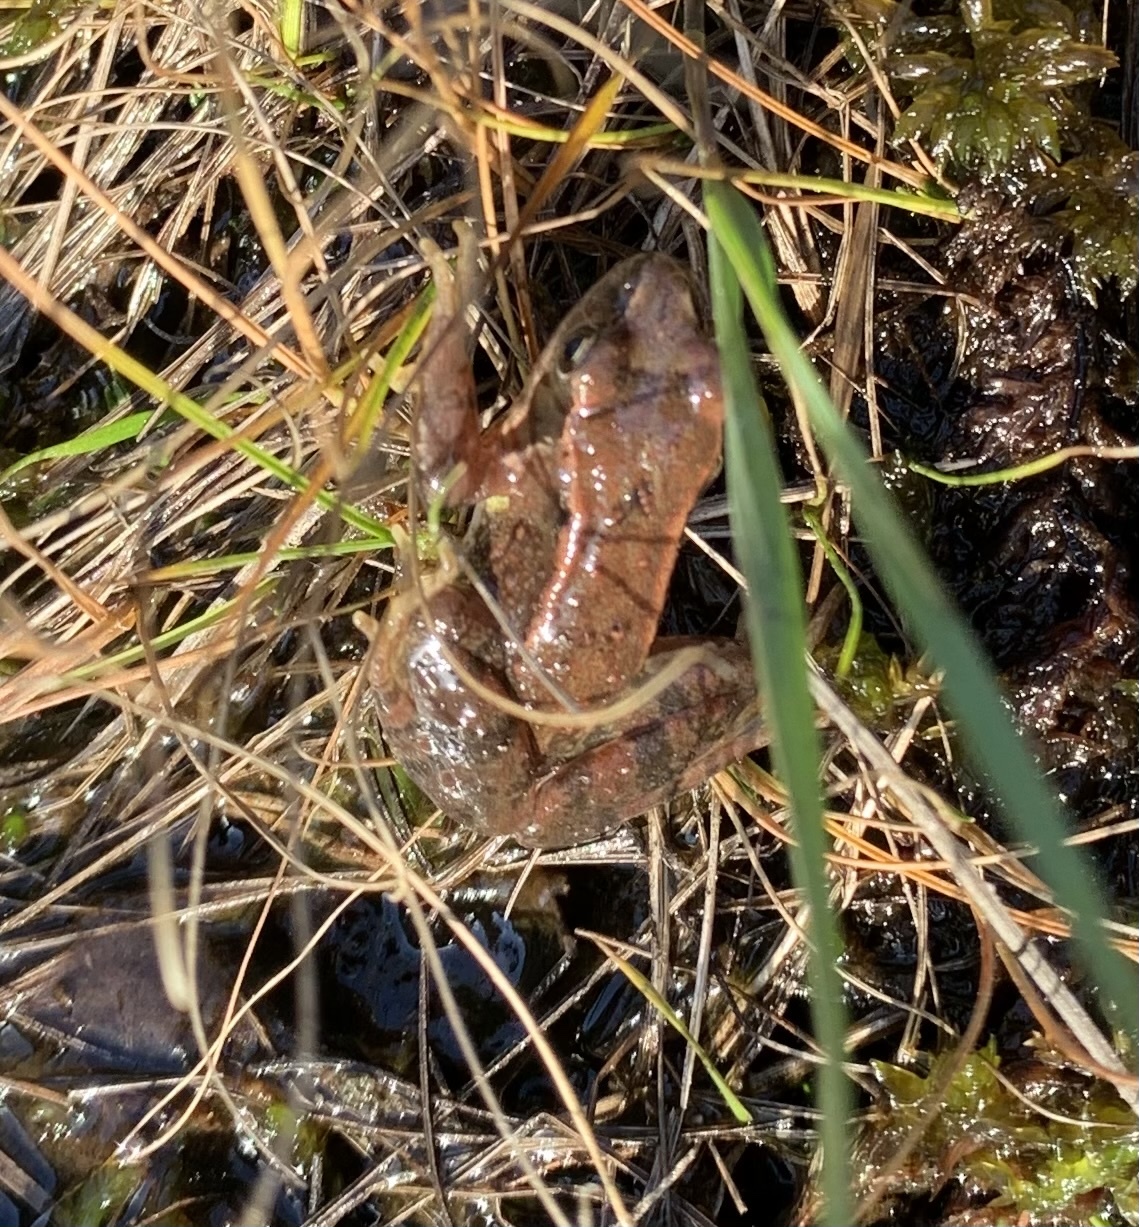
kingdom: Animalia
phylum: Chordata
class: Amphibia
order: Anura
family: Ranidae
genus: Rana
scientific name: Rana temporaria
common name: Common frog
